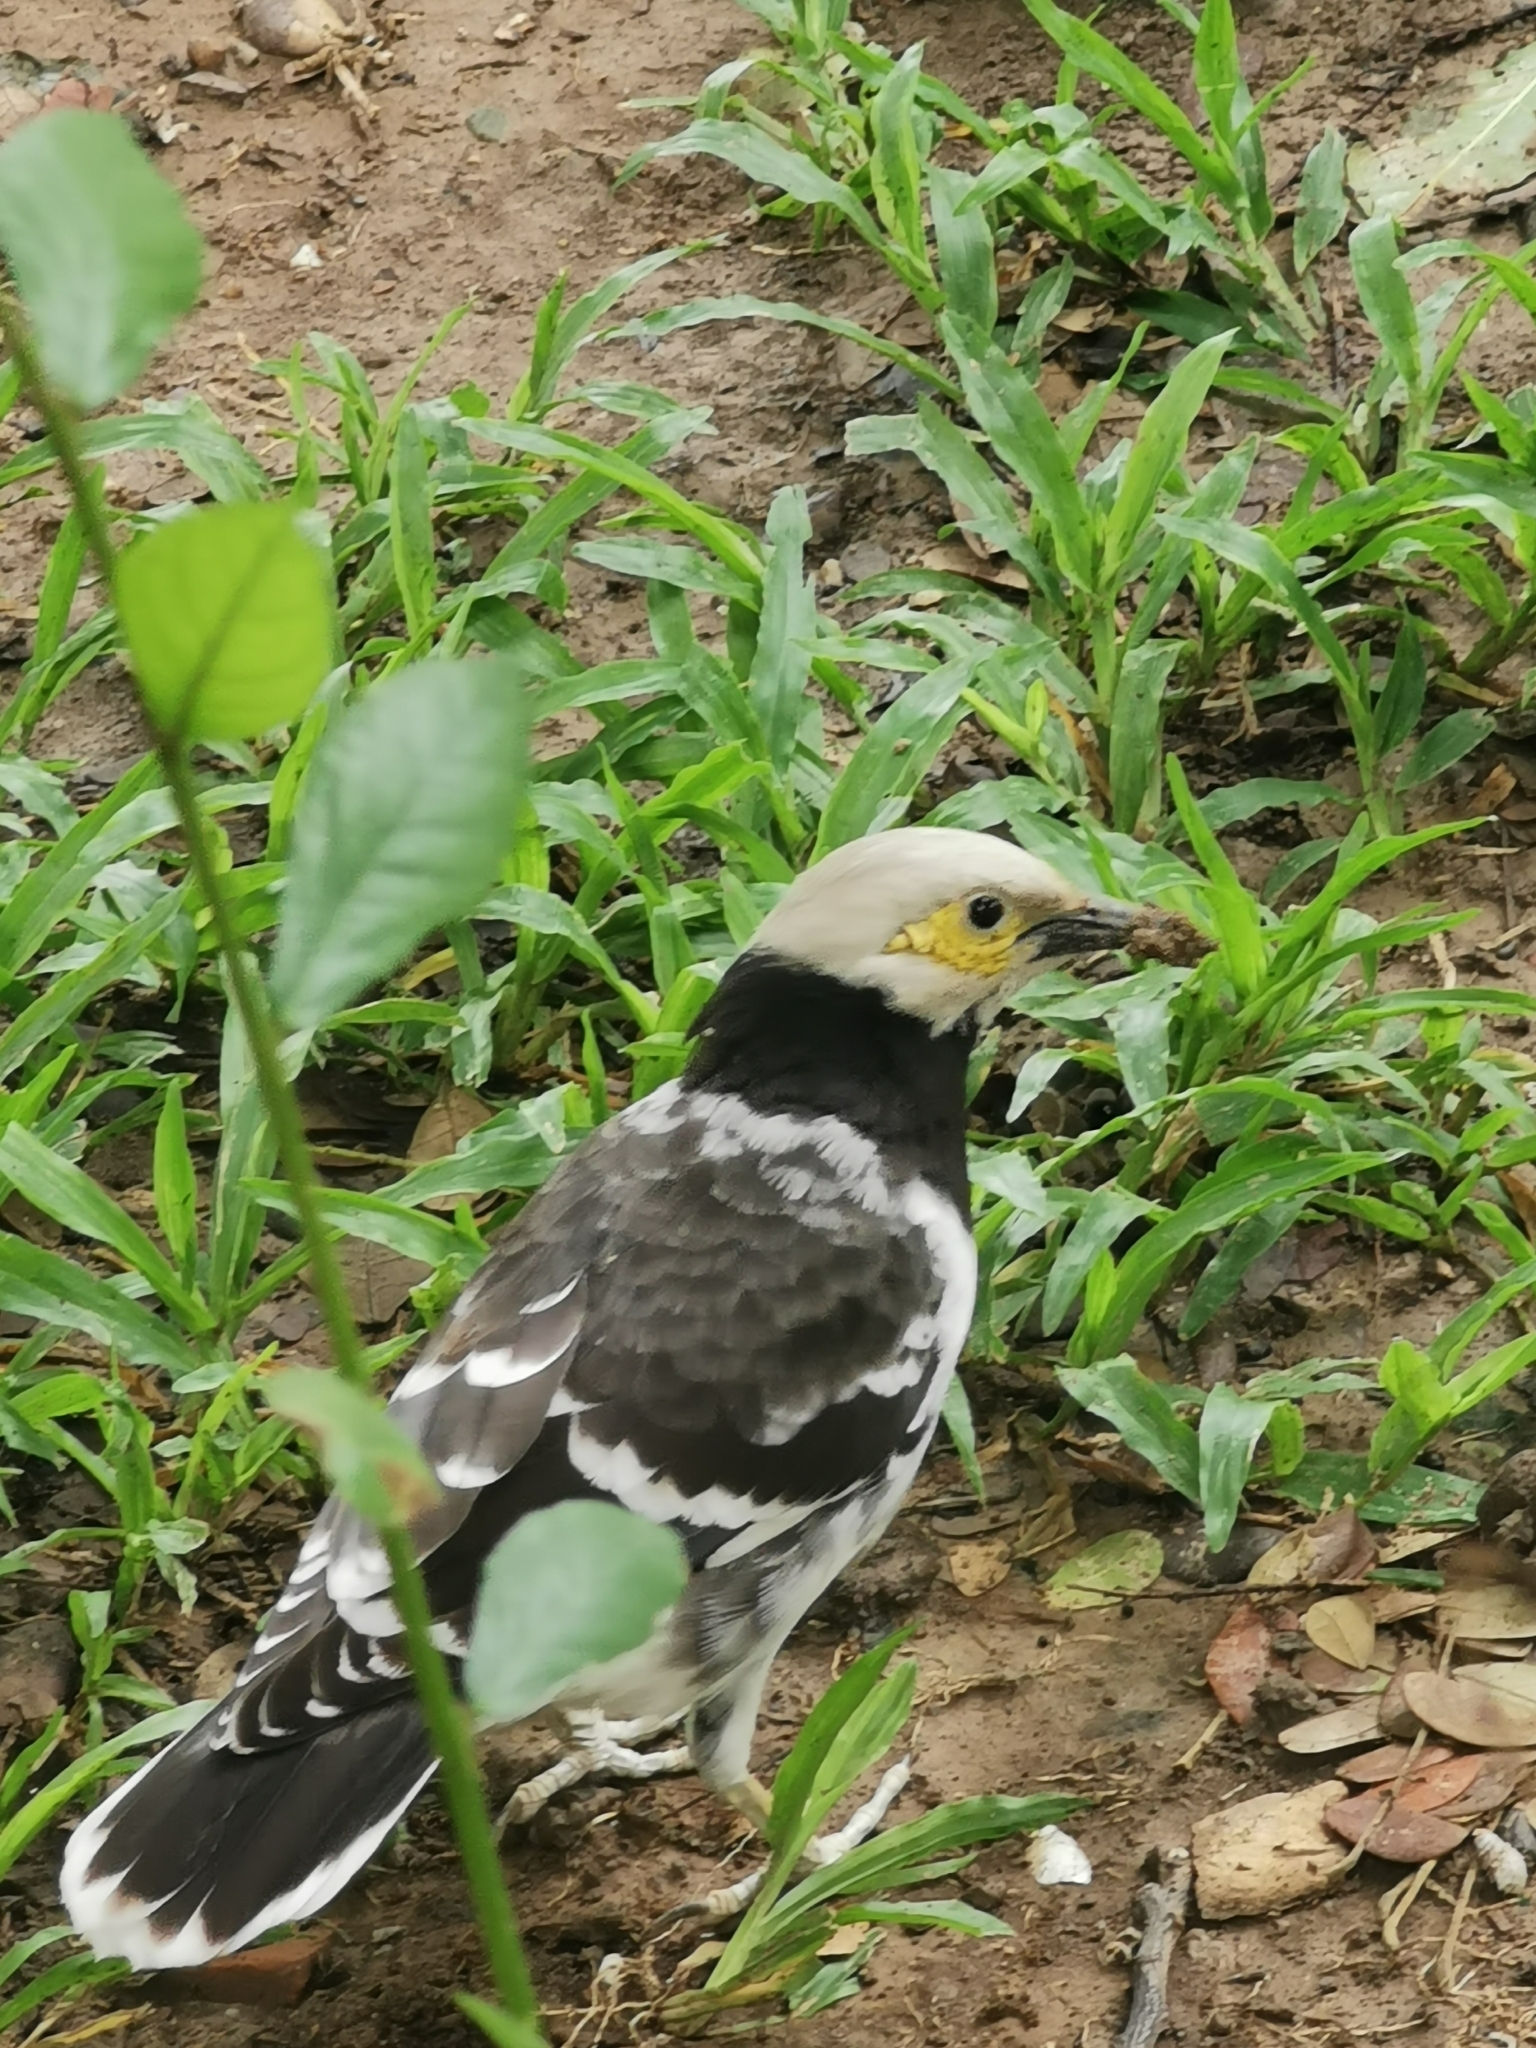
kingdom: Animalia
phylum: Chordata
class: Aves
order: Passeriformes
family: Sturnidae
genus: Gracupica
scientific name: Gracupica nigricollis
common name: Black-collared starling
